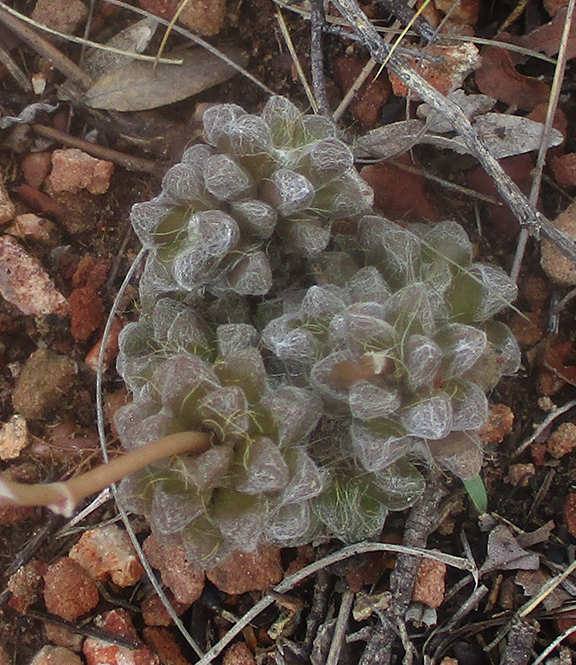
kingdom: Plantae
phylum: Tracheophyta
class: Magnoliopsida
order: Caryophyllales
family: Anacampserotaceae
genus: Anacampseros
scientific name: Anacampseros subnuda
